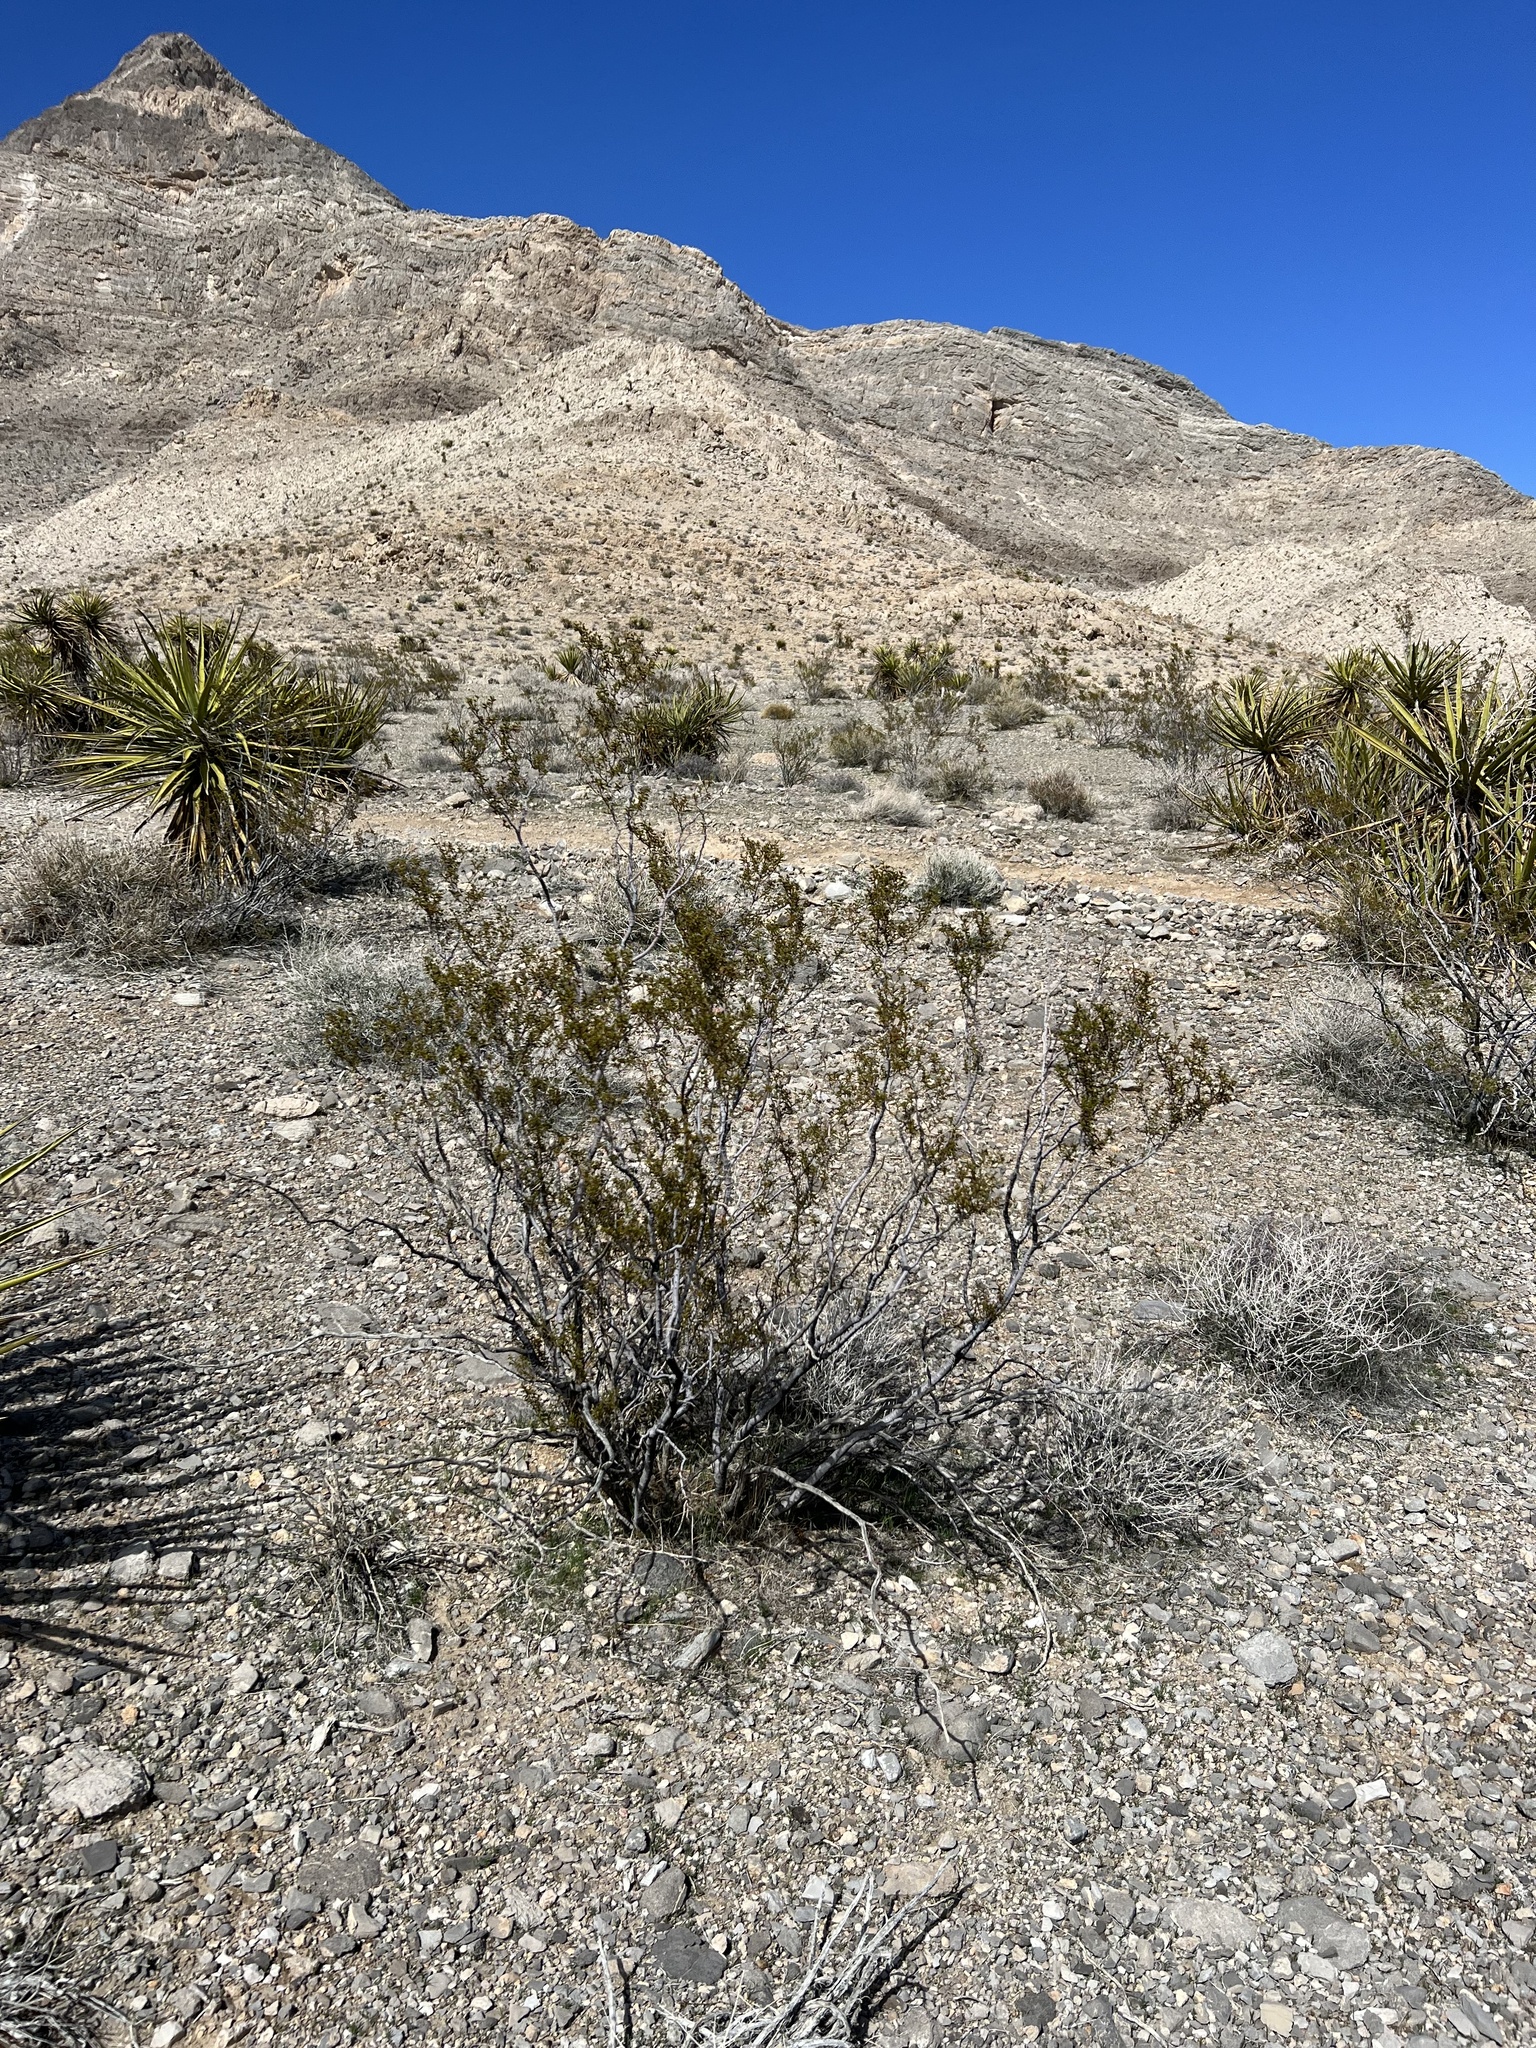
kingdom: Plantae
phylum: Tracheophyta
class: Magnoliopsida
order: Zygophyllales
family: Zygophyllaceae
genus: Larrea
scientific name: Larrea tridentata
